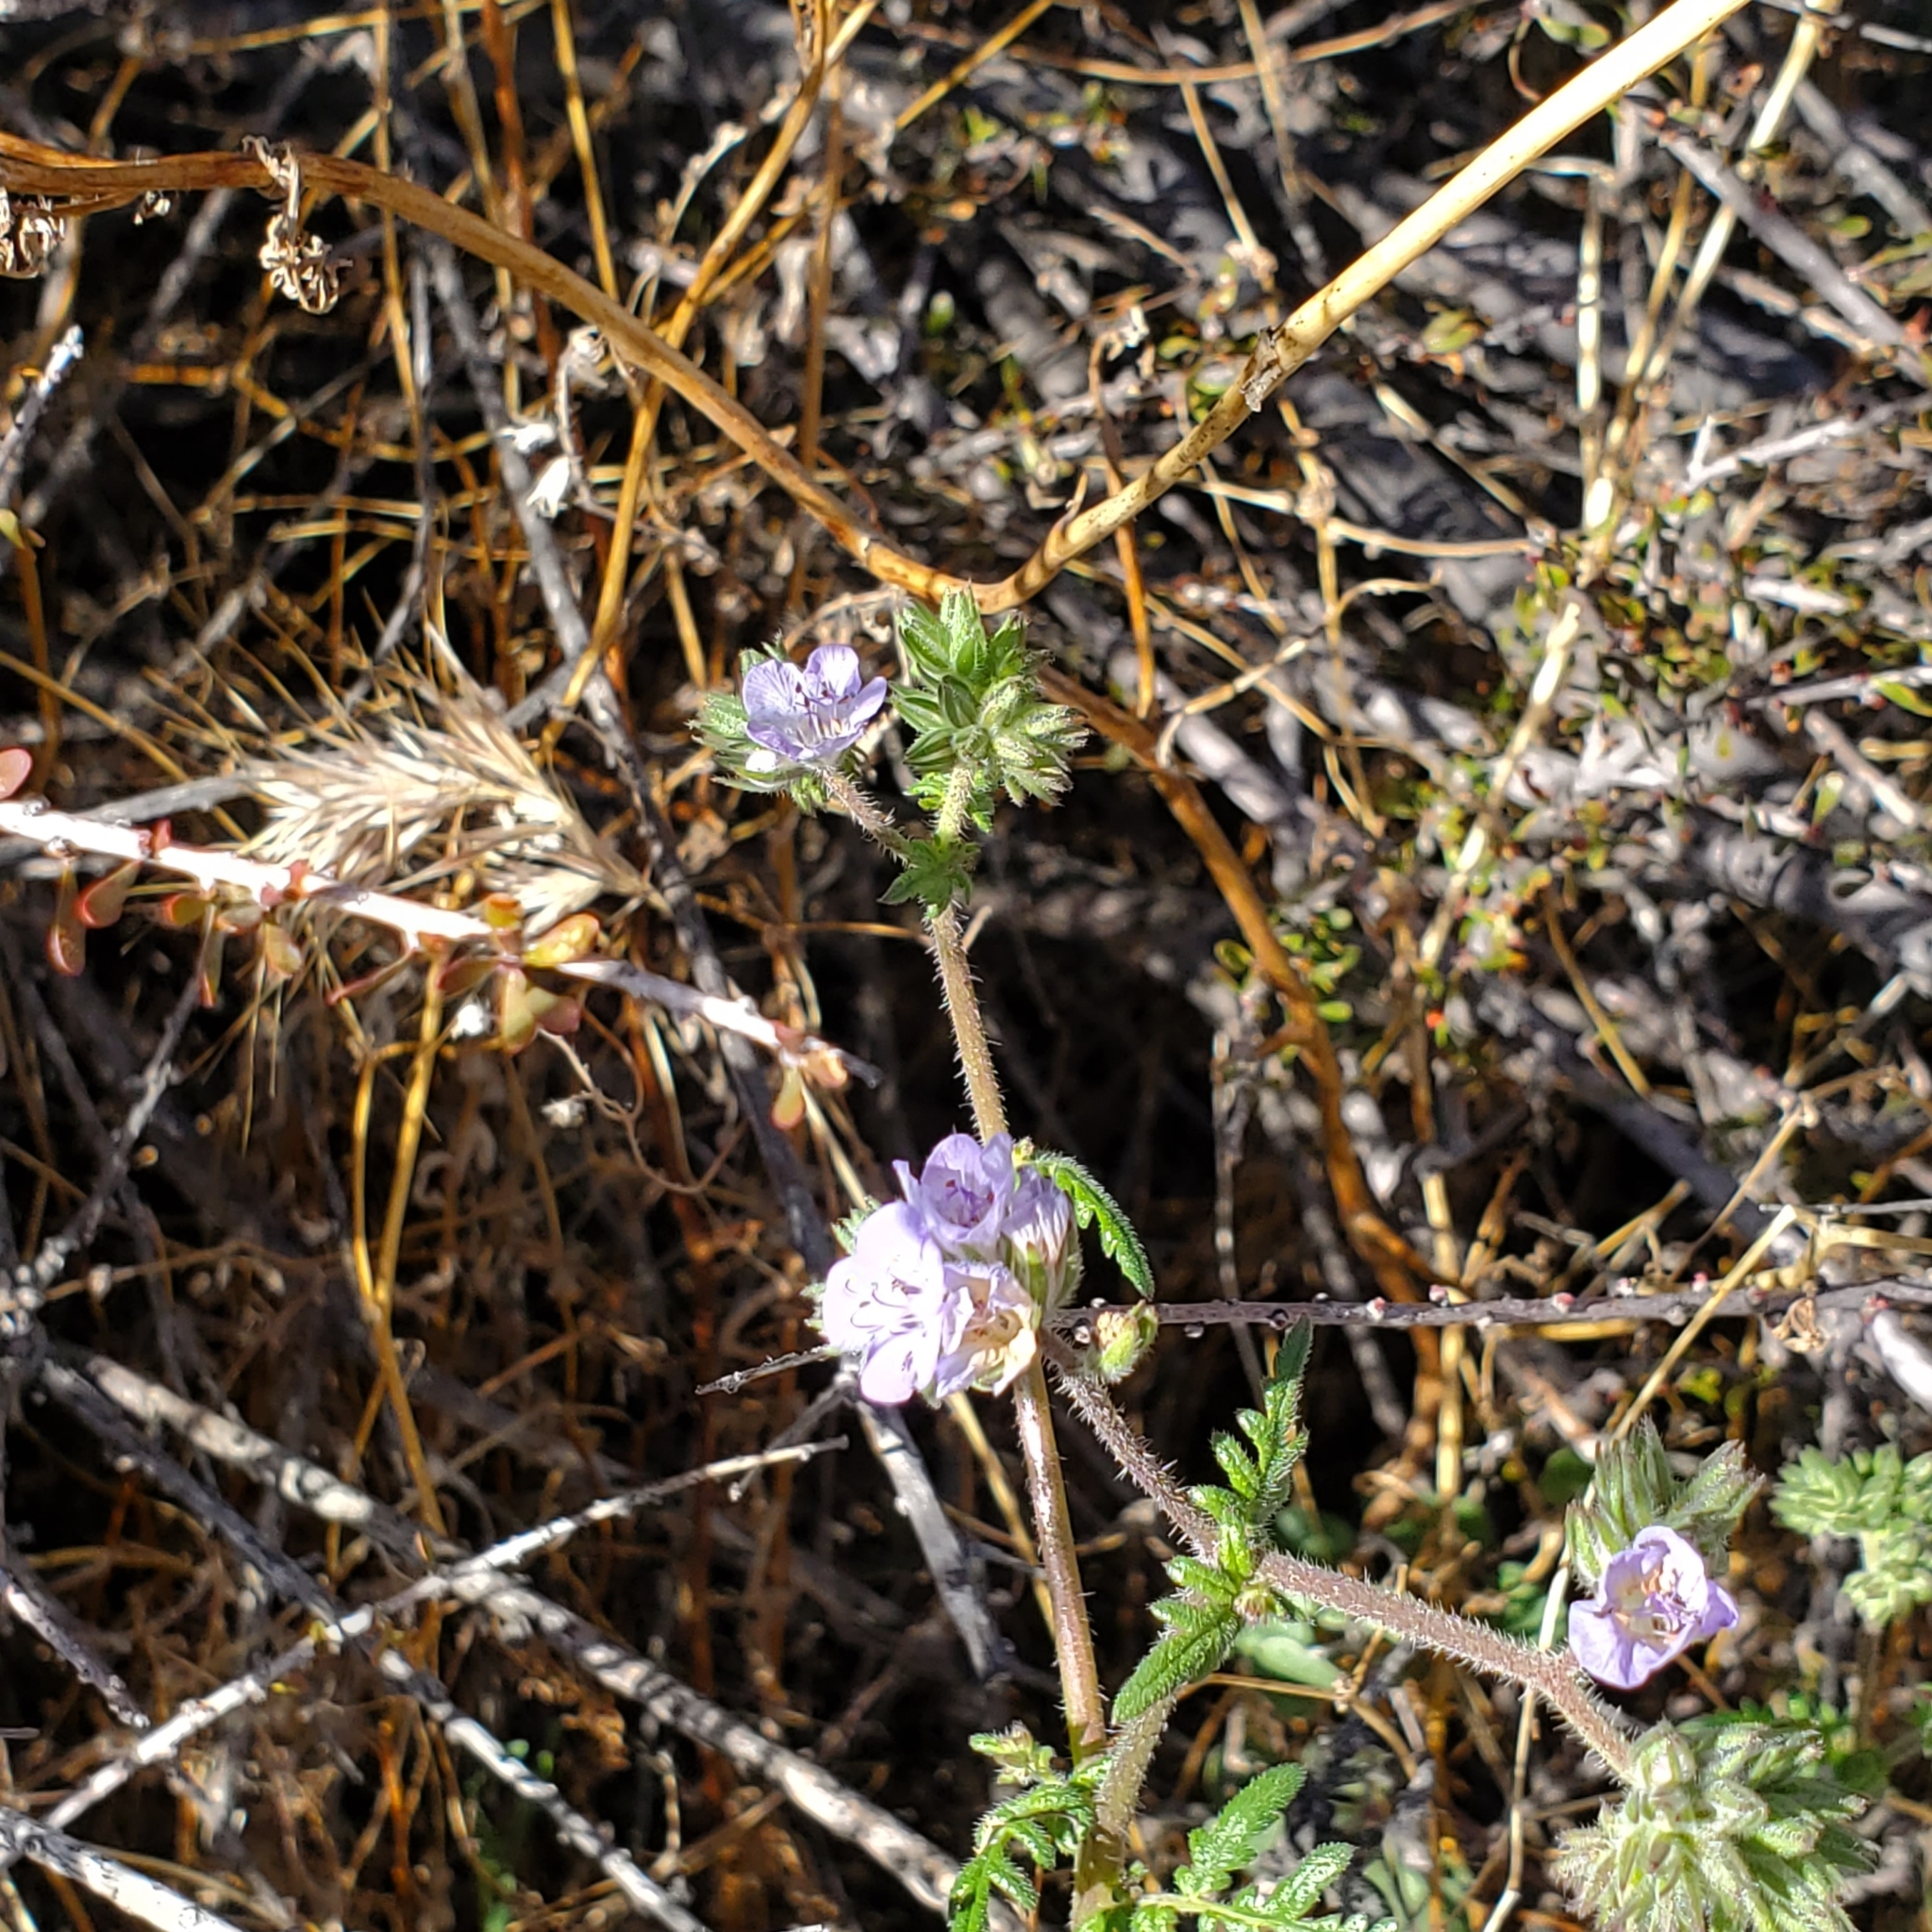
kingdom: Plantae
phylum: Tracheophyta
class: Magnoliopsida
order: Boraginales
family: Hydrophyllaceae
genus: Phacelia
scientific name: Phacelia distans
